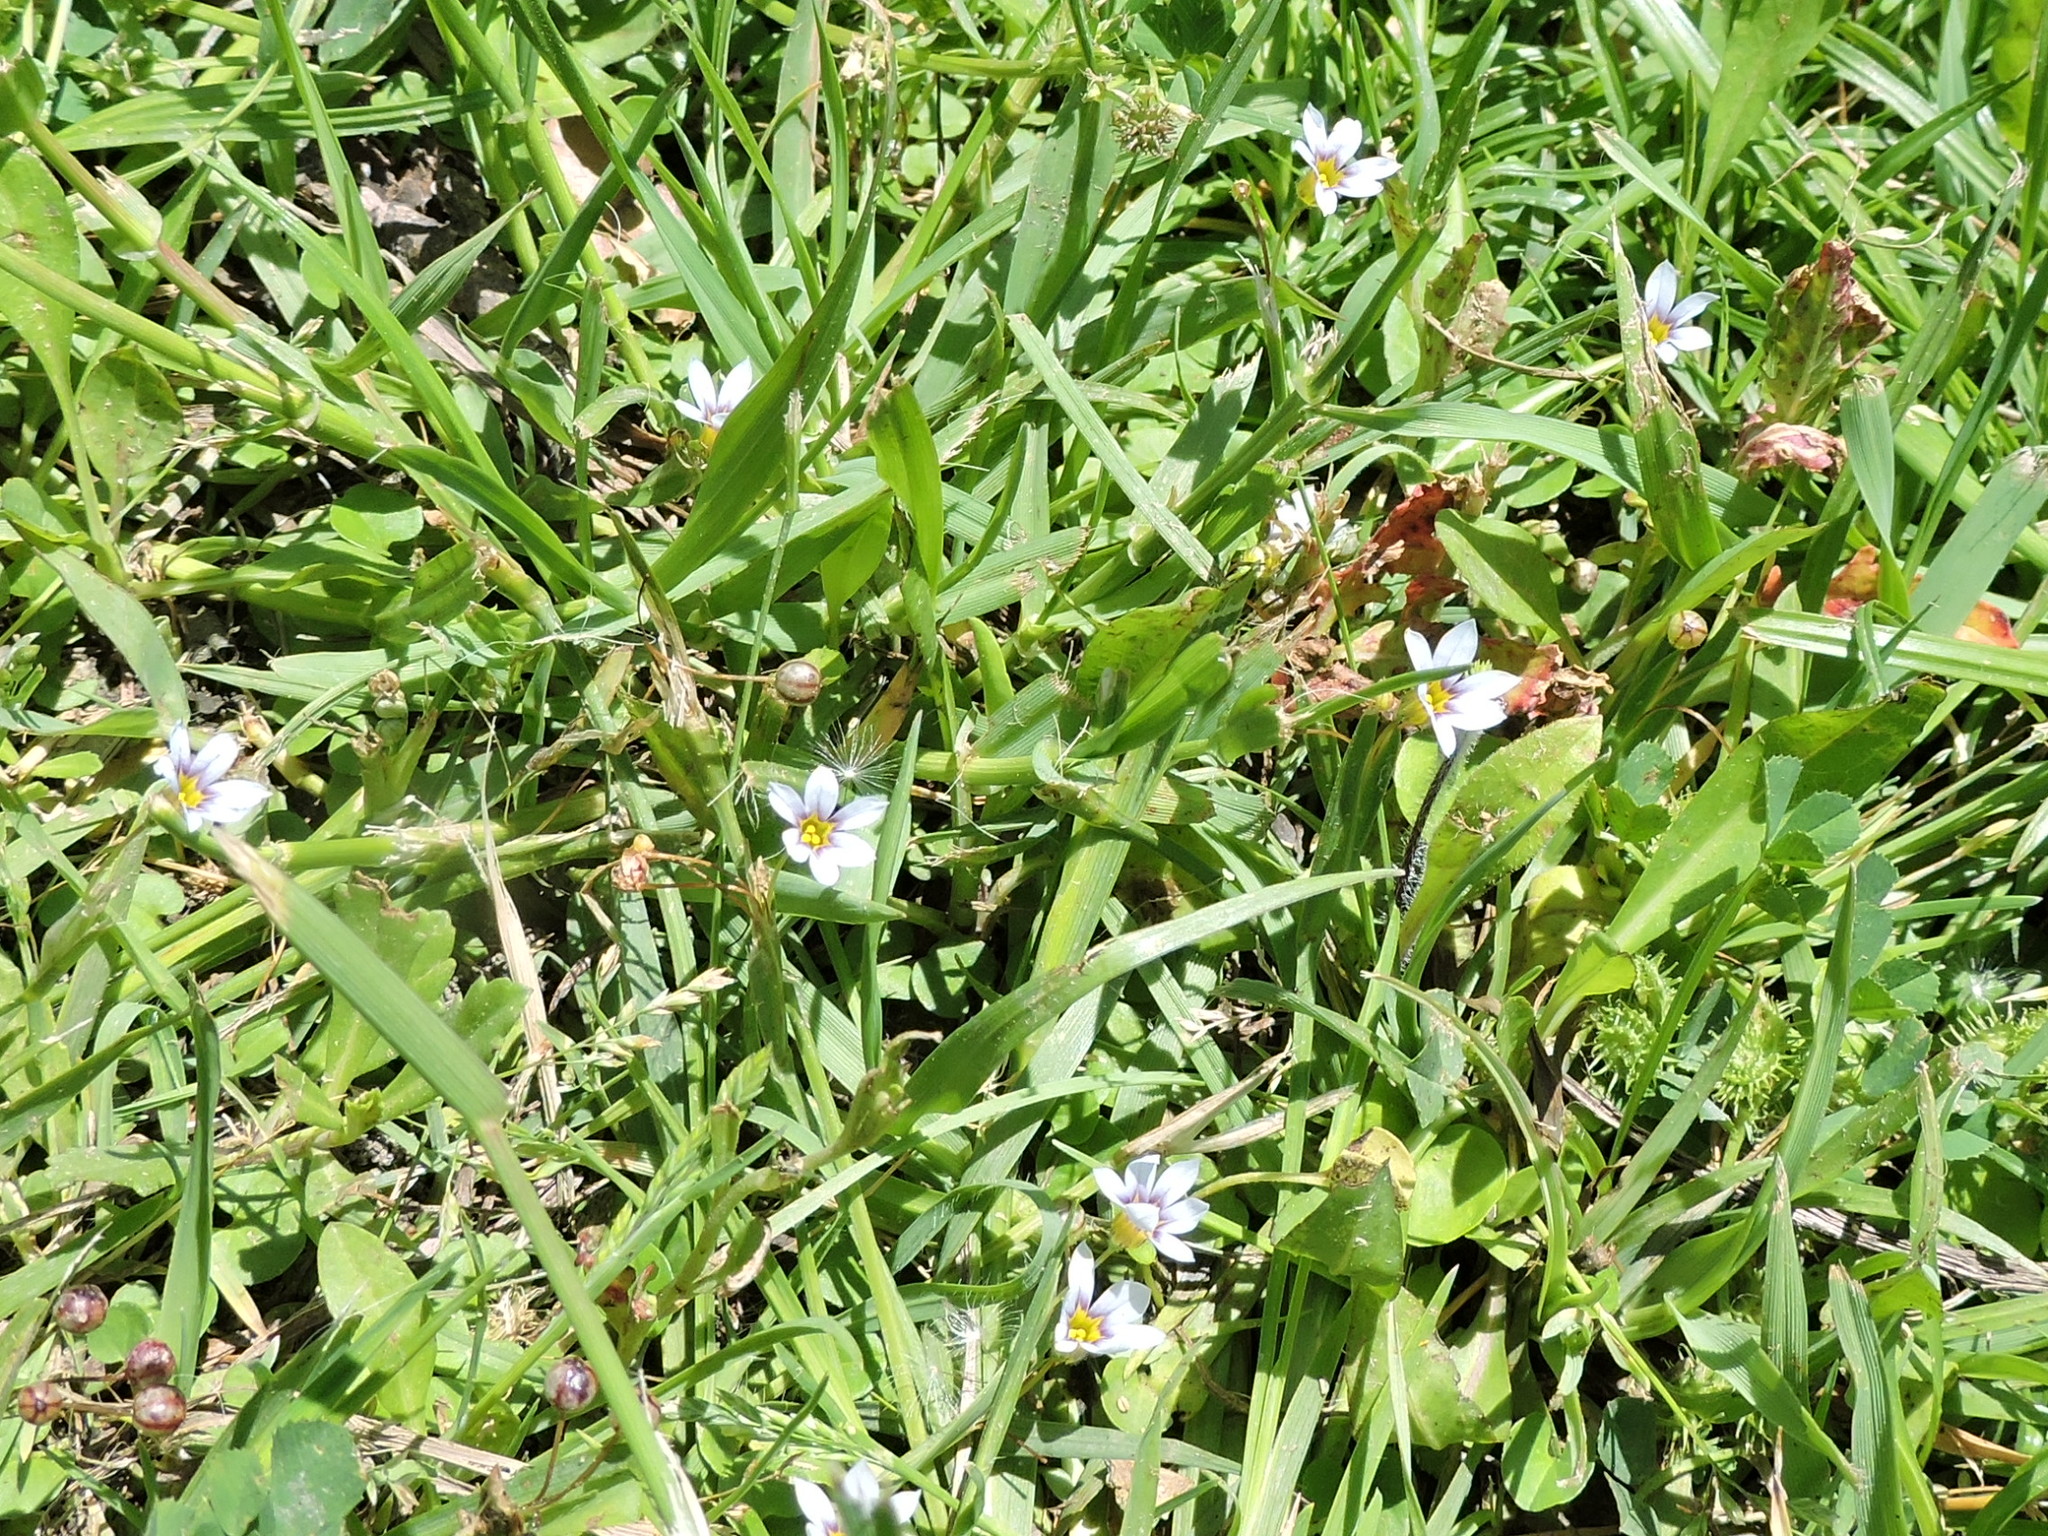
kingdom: Plantae
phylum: Tracheophyta
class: Liliopsida
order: Asparagales
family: Iridaceae
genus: Sisyrinchium
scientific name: Sisyrinchium micranthum
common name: Bermuda pigroot
